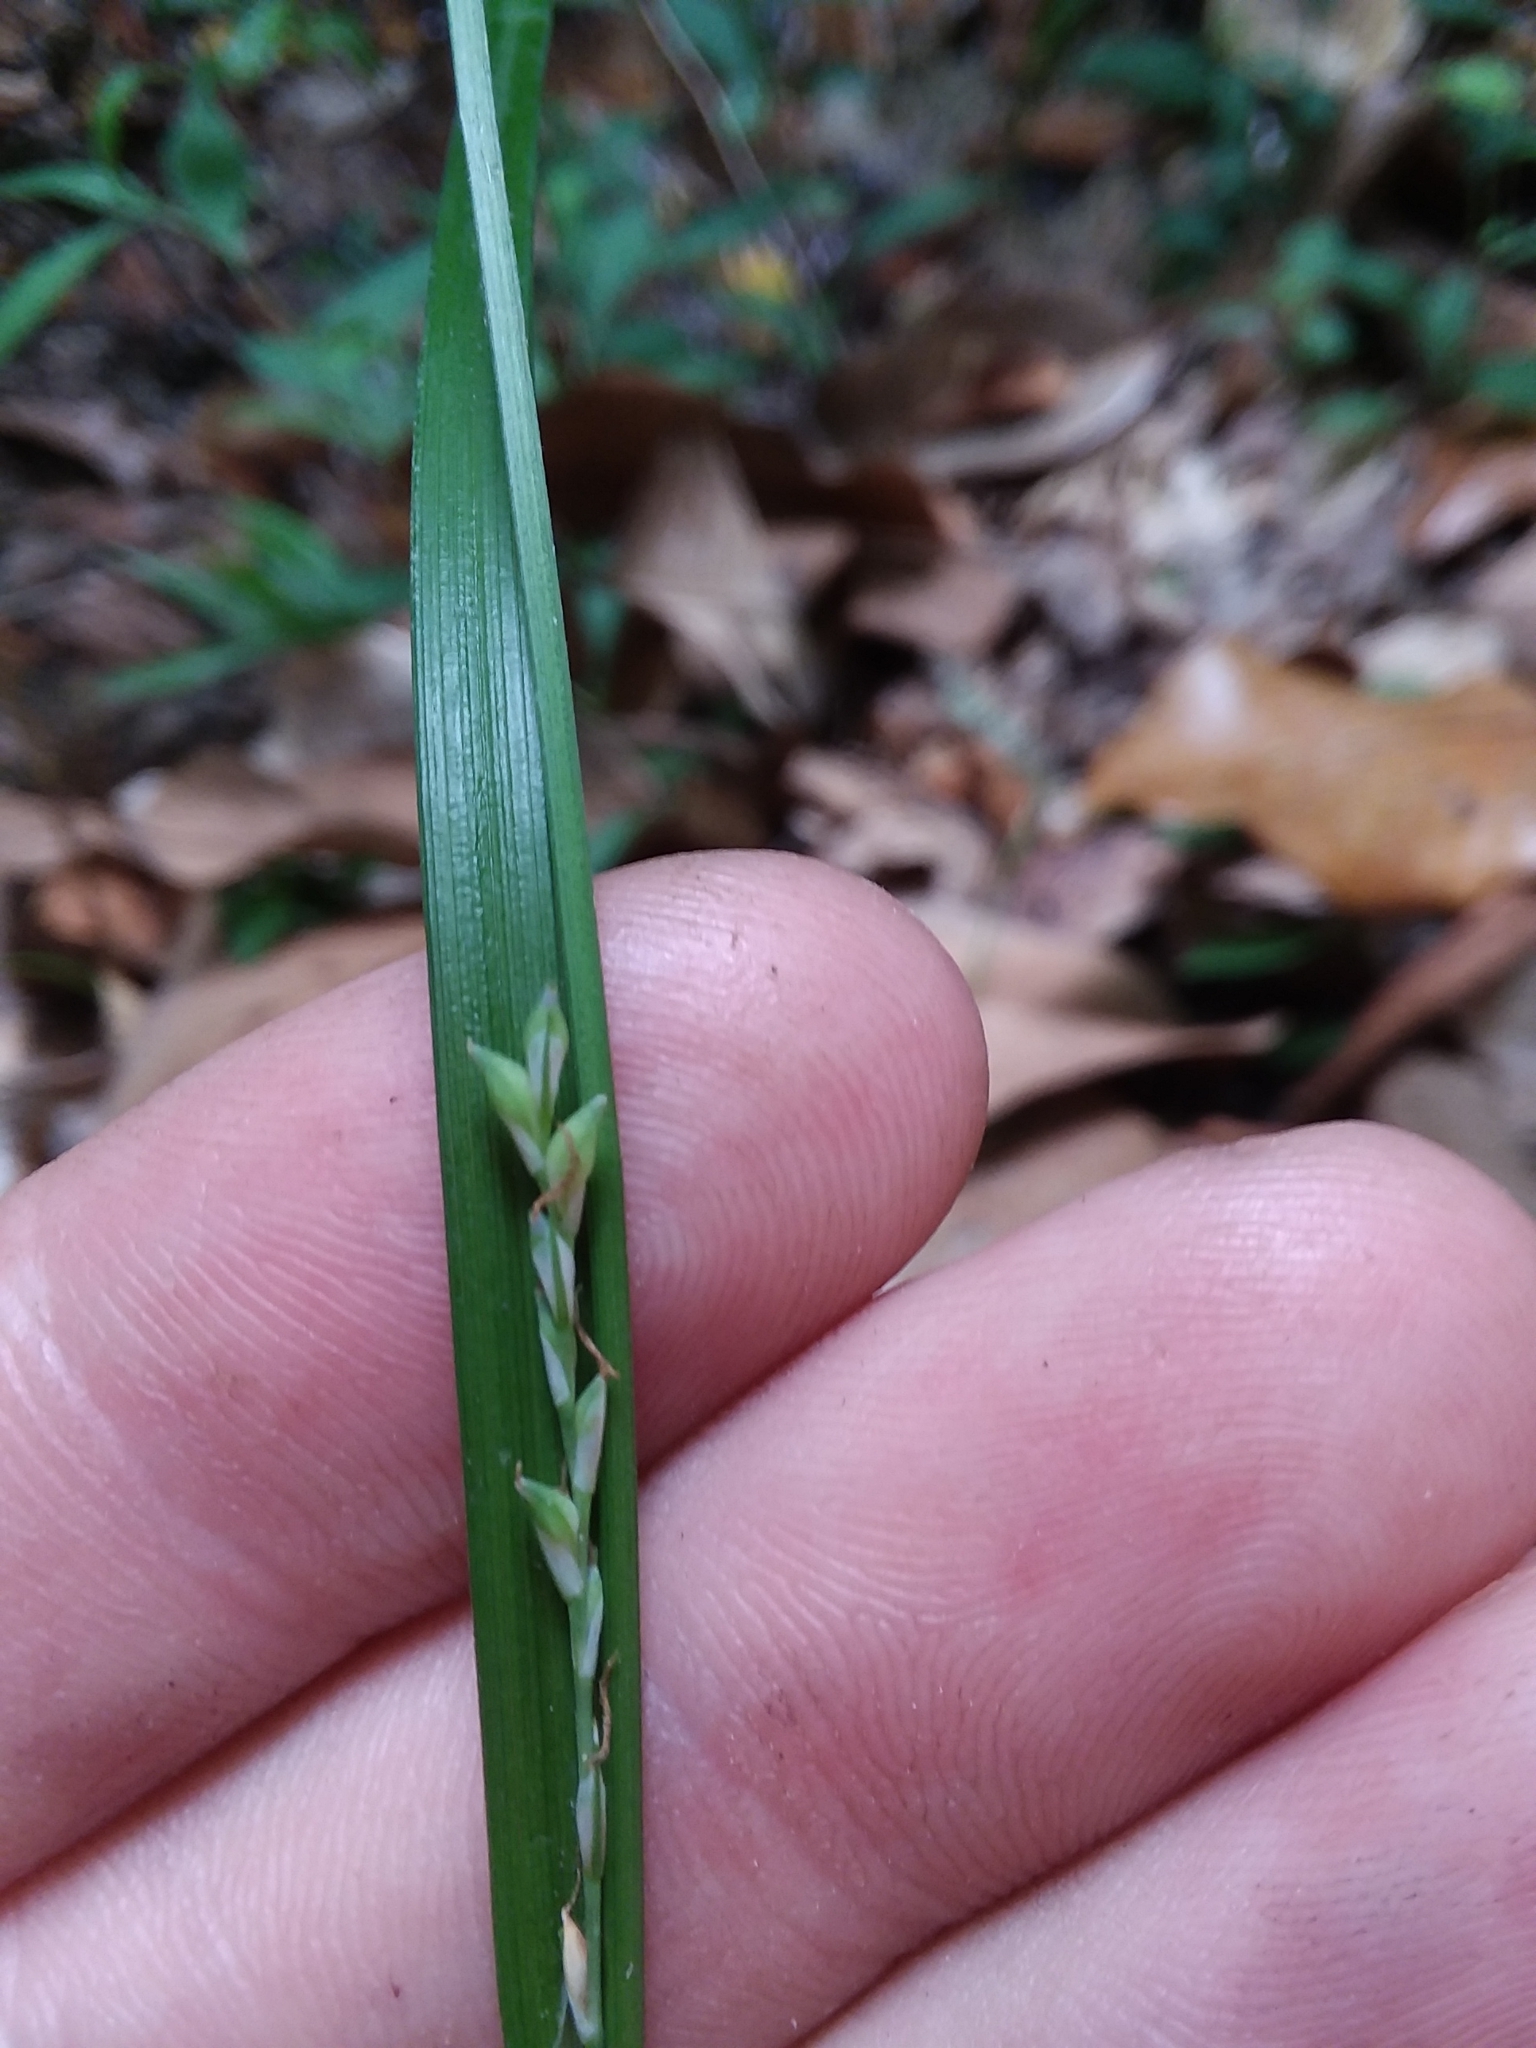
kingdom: Plantae
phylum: Tracheophyta
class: Liliopsida
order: Poales
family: Cyperaceae
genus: Carex
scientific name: Carex ignota
